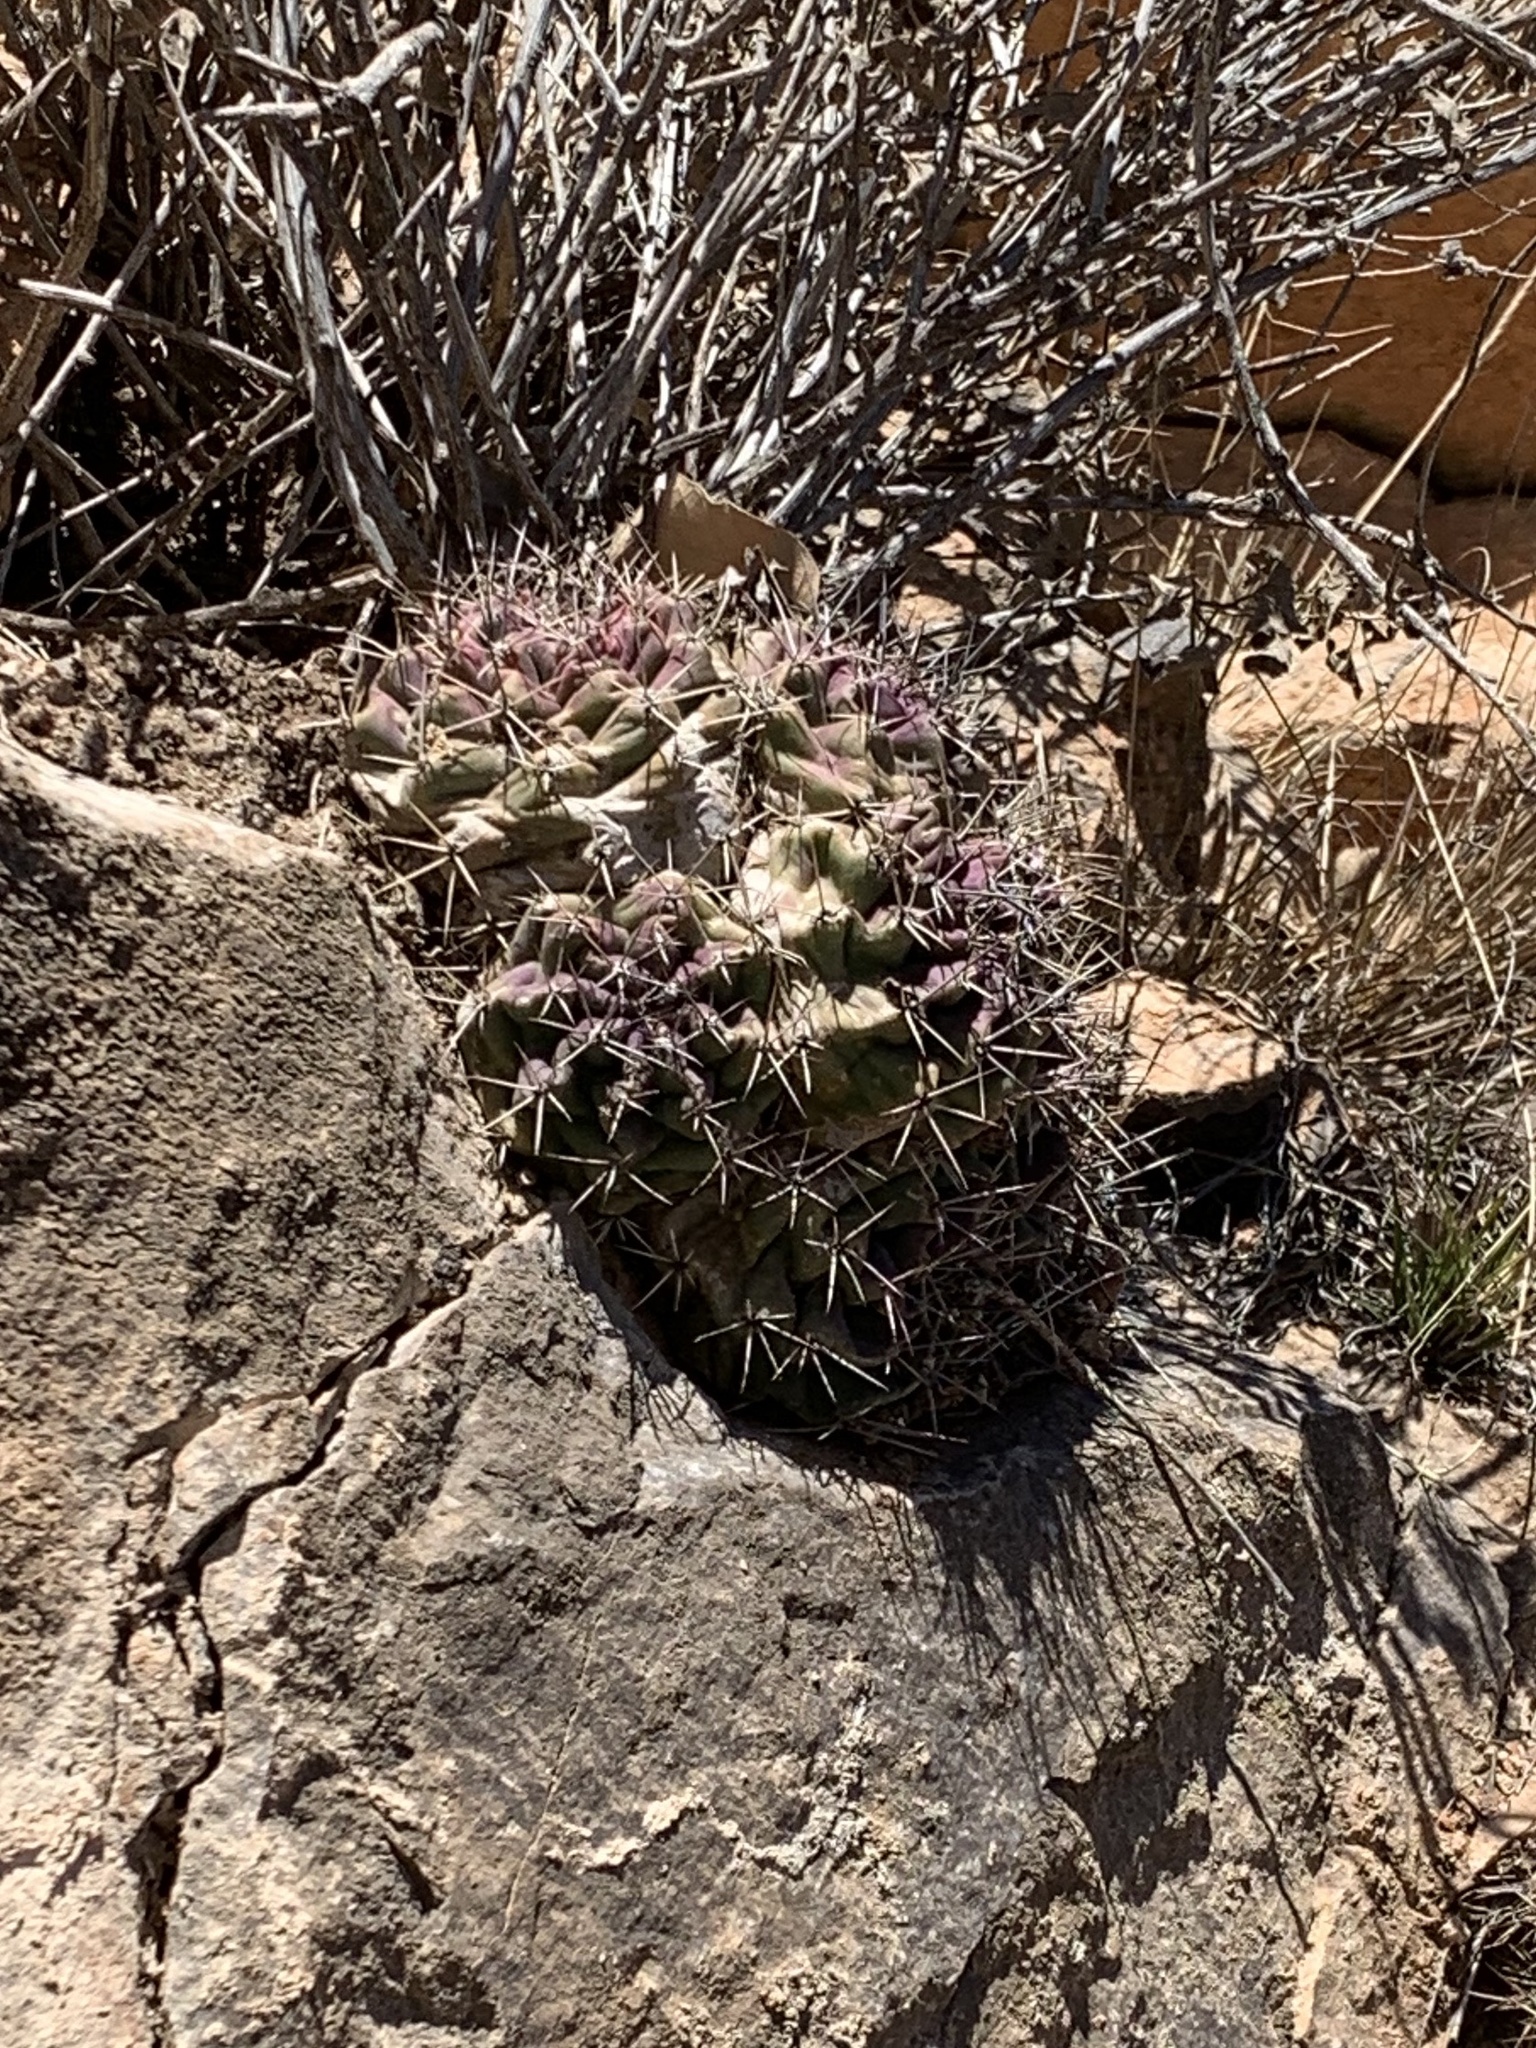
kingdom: Plantae
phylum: Tracheophyta
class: Magnoliopsida
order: Caryophyllales
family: Cactaceae
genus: Echinocereus
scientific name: Echinocereus coccineus
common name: Scarlet hedgehog cactus
